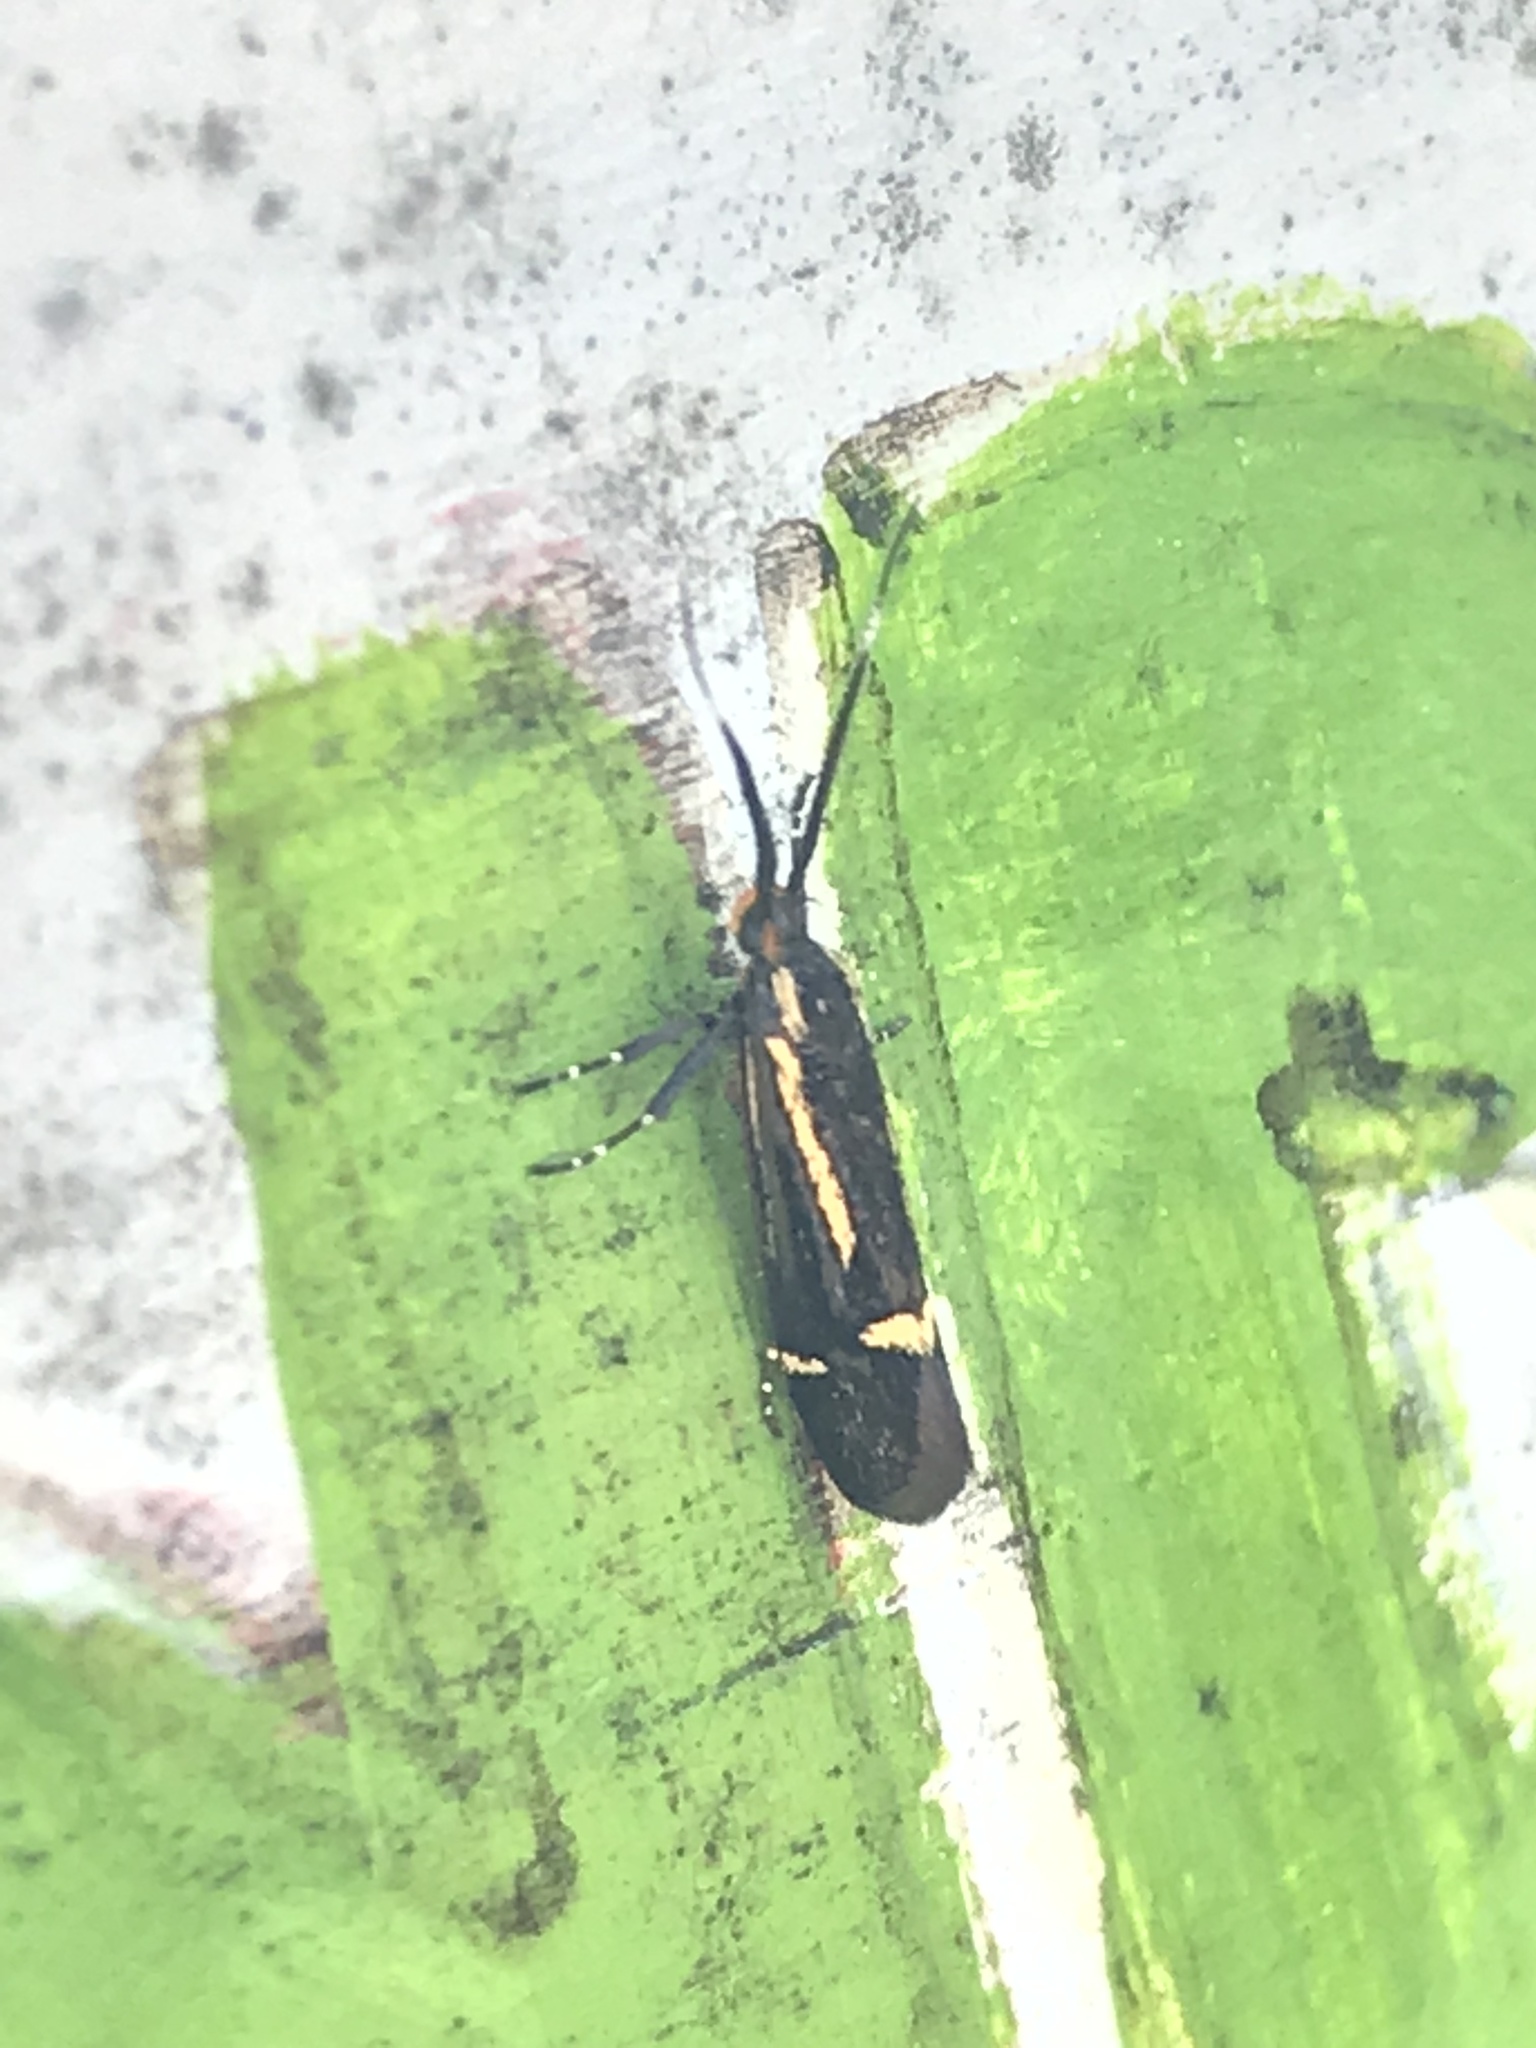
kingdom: Animalia
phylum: Arthropoda
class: Insecta
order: Lepidoptera
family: Oecophoridae
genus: Dafa
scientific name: Dafa Esperia sulphurella
